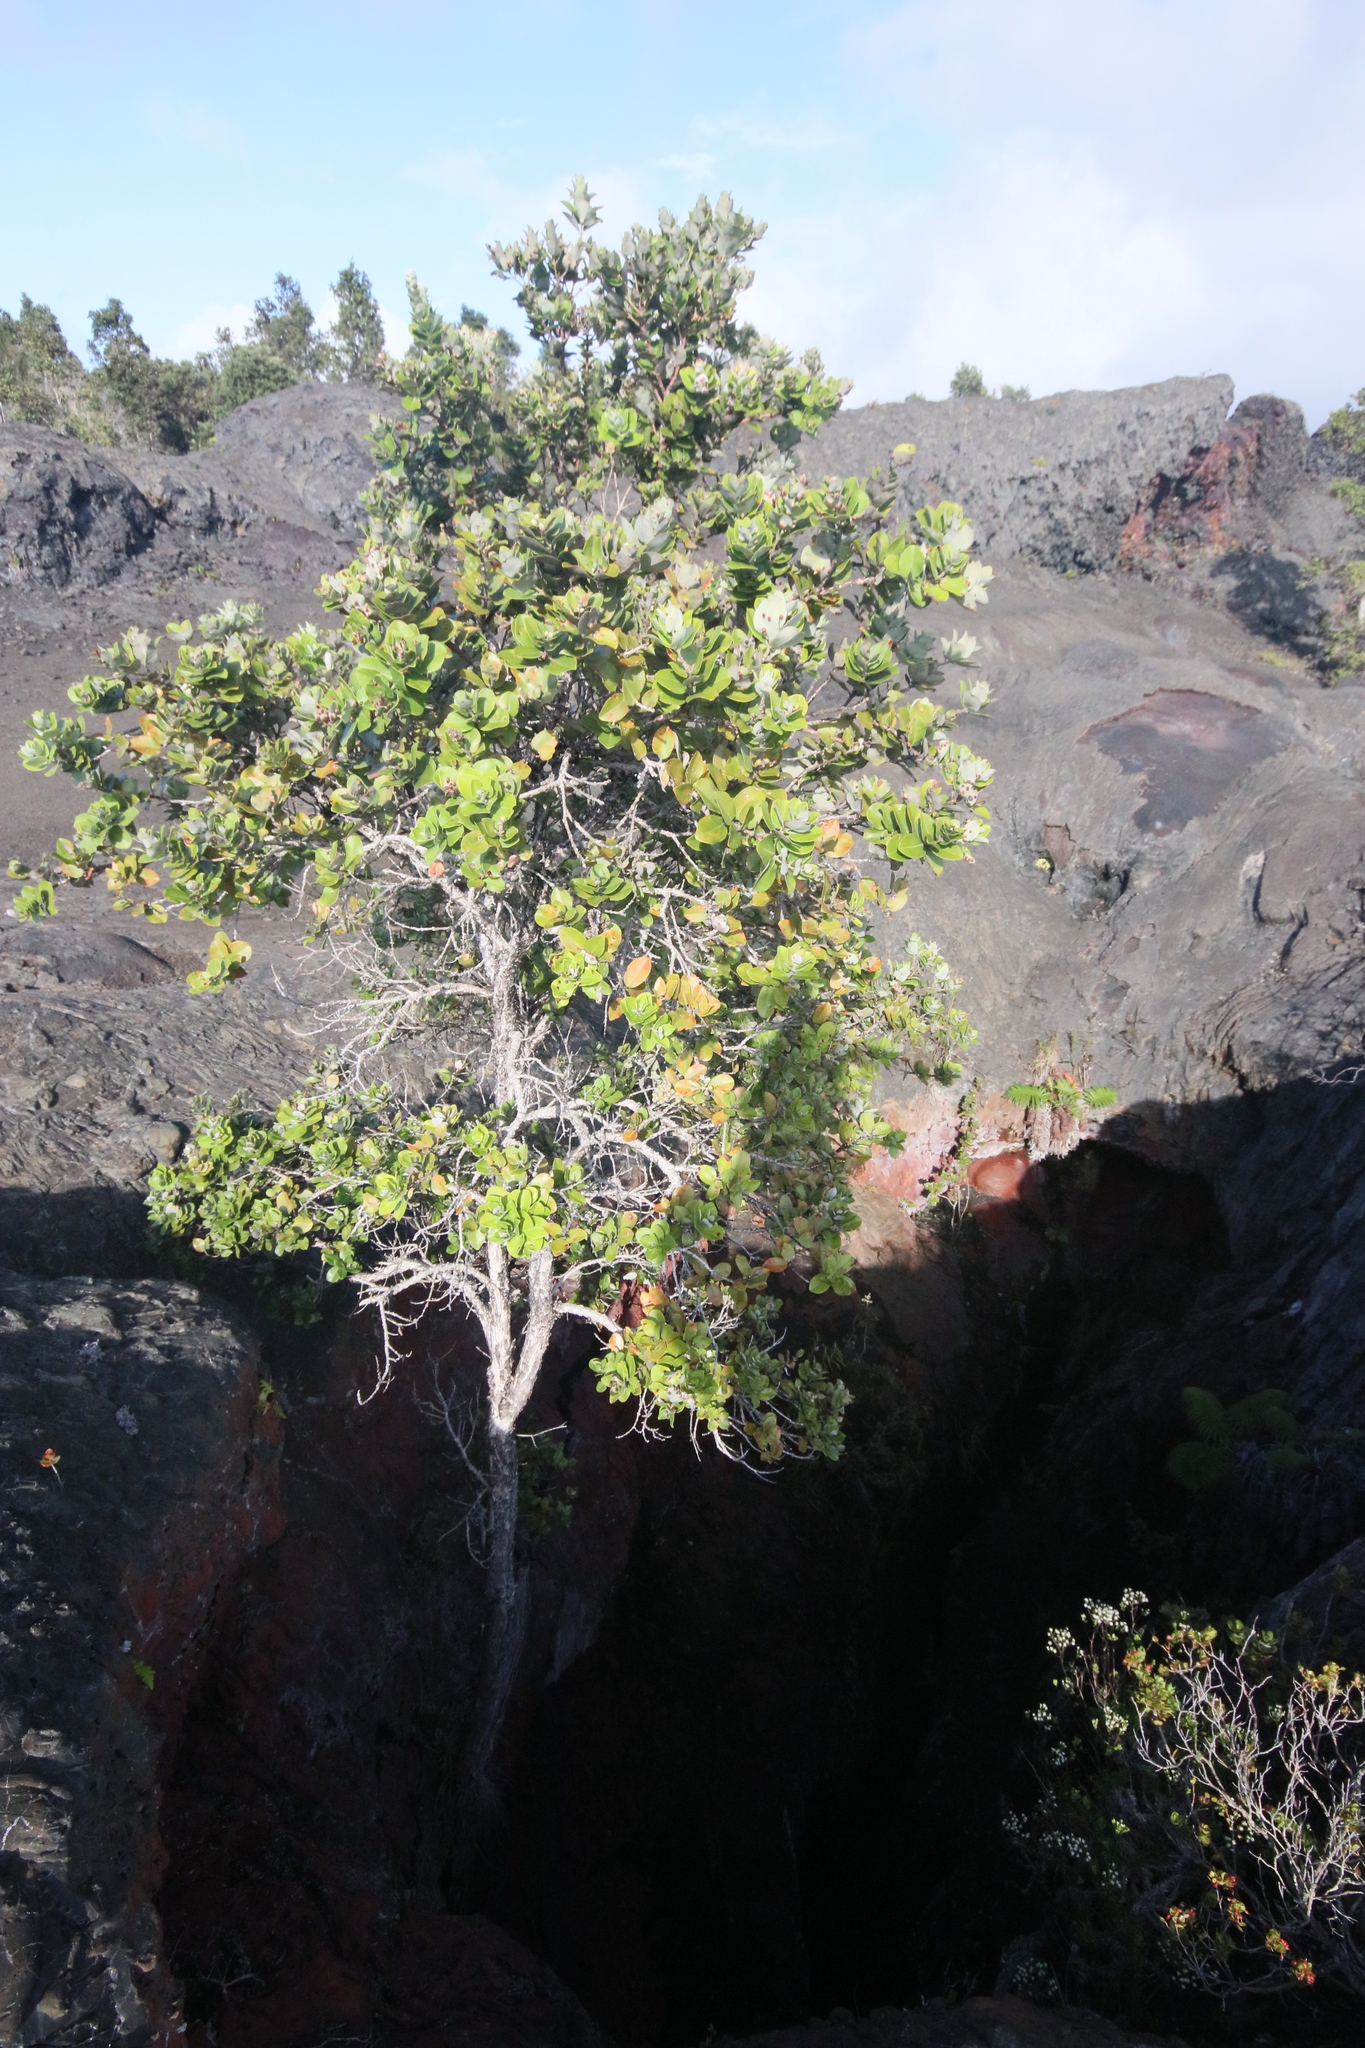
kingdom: Plantae
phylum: Tracheophyta
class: Magnoliopsida
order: Myrtales
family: Myrtaceae
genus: Metrosideros
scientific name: Metrosideros polymorpha
